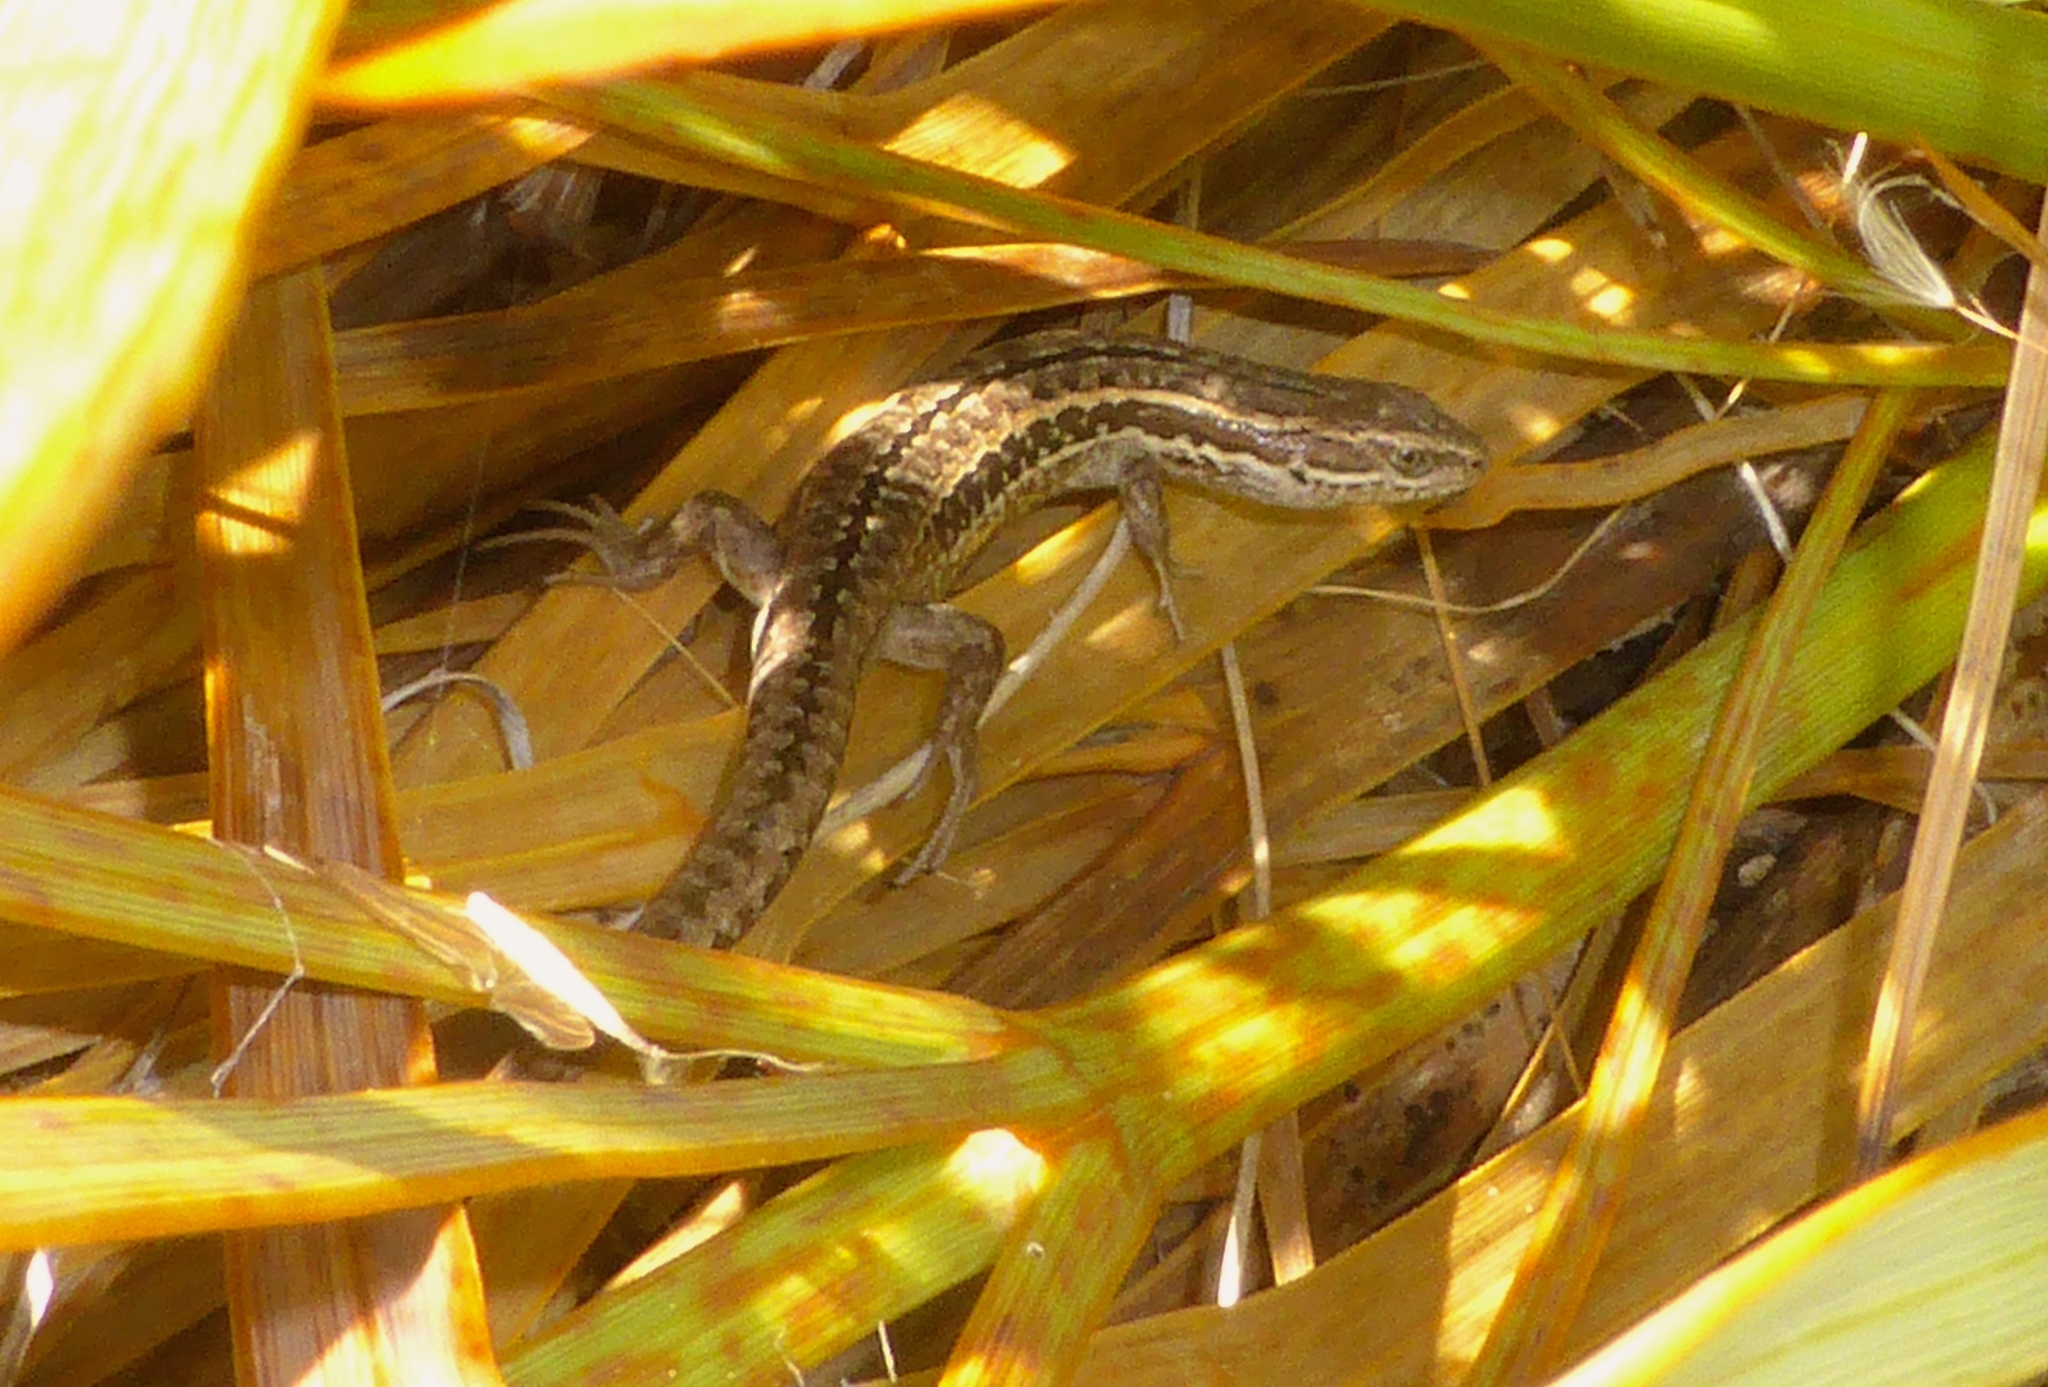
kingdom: Animalia
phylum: Chordata
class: Squamata
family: Scincidae
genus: Oligosoma
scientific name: Oligosoma maccanni
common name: Mccann’s skink
